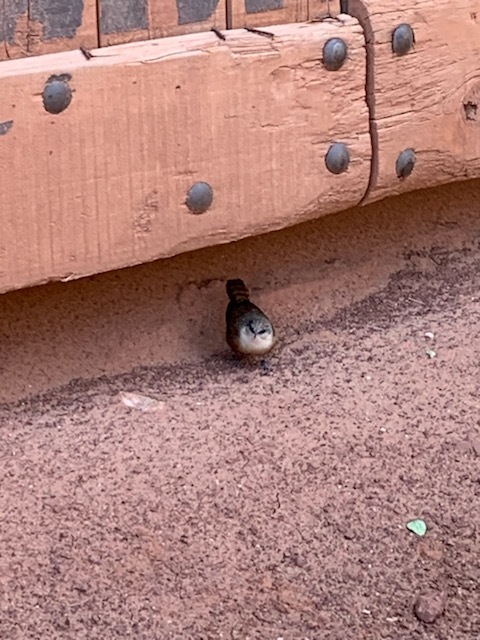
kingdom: Animalia
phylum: Chordata
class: Aves
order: Passeriformes
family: Troglodytidae
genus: Catherpes
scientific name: Catherpes mexicanus
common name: Canyon wren
